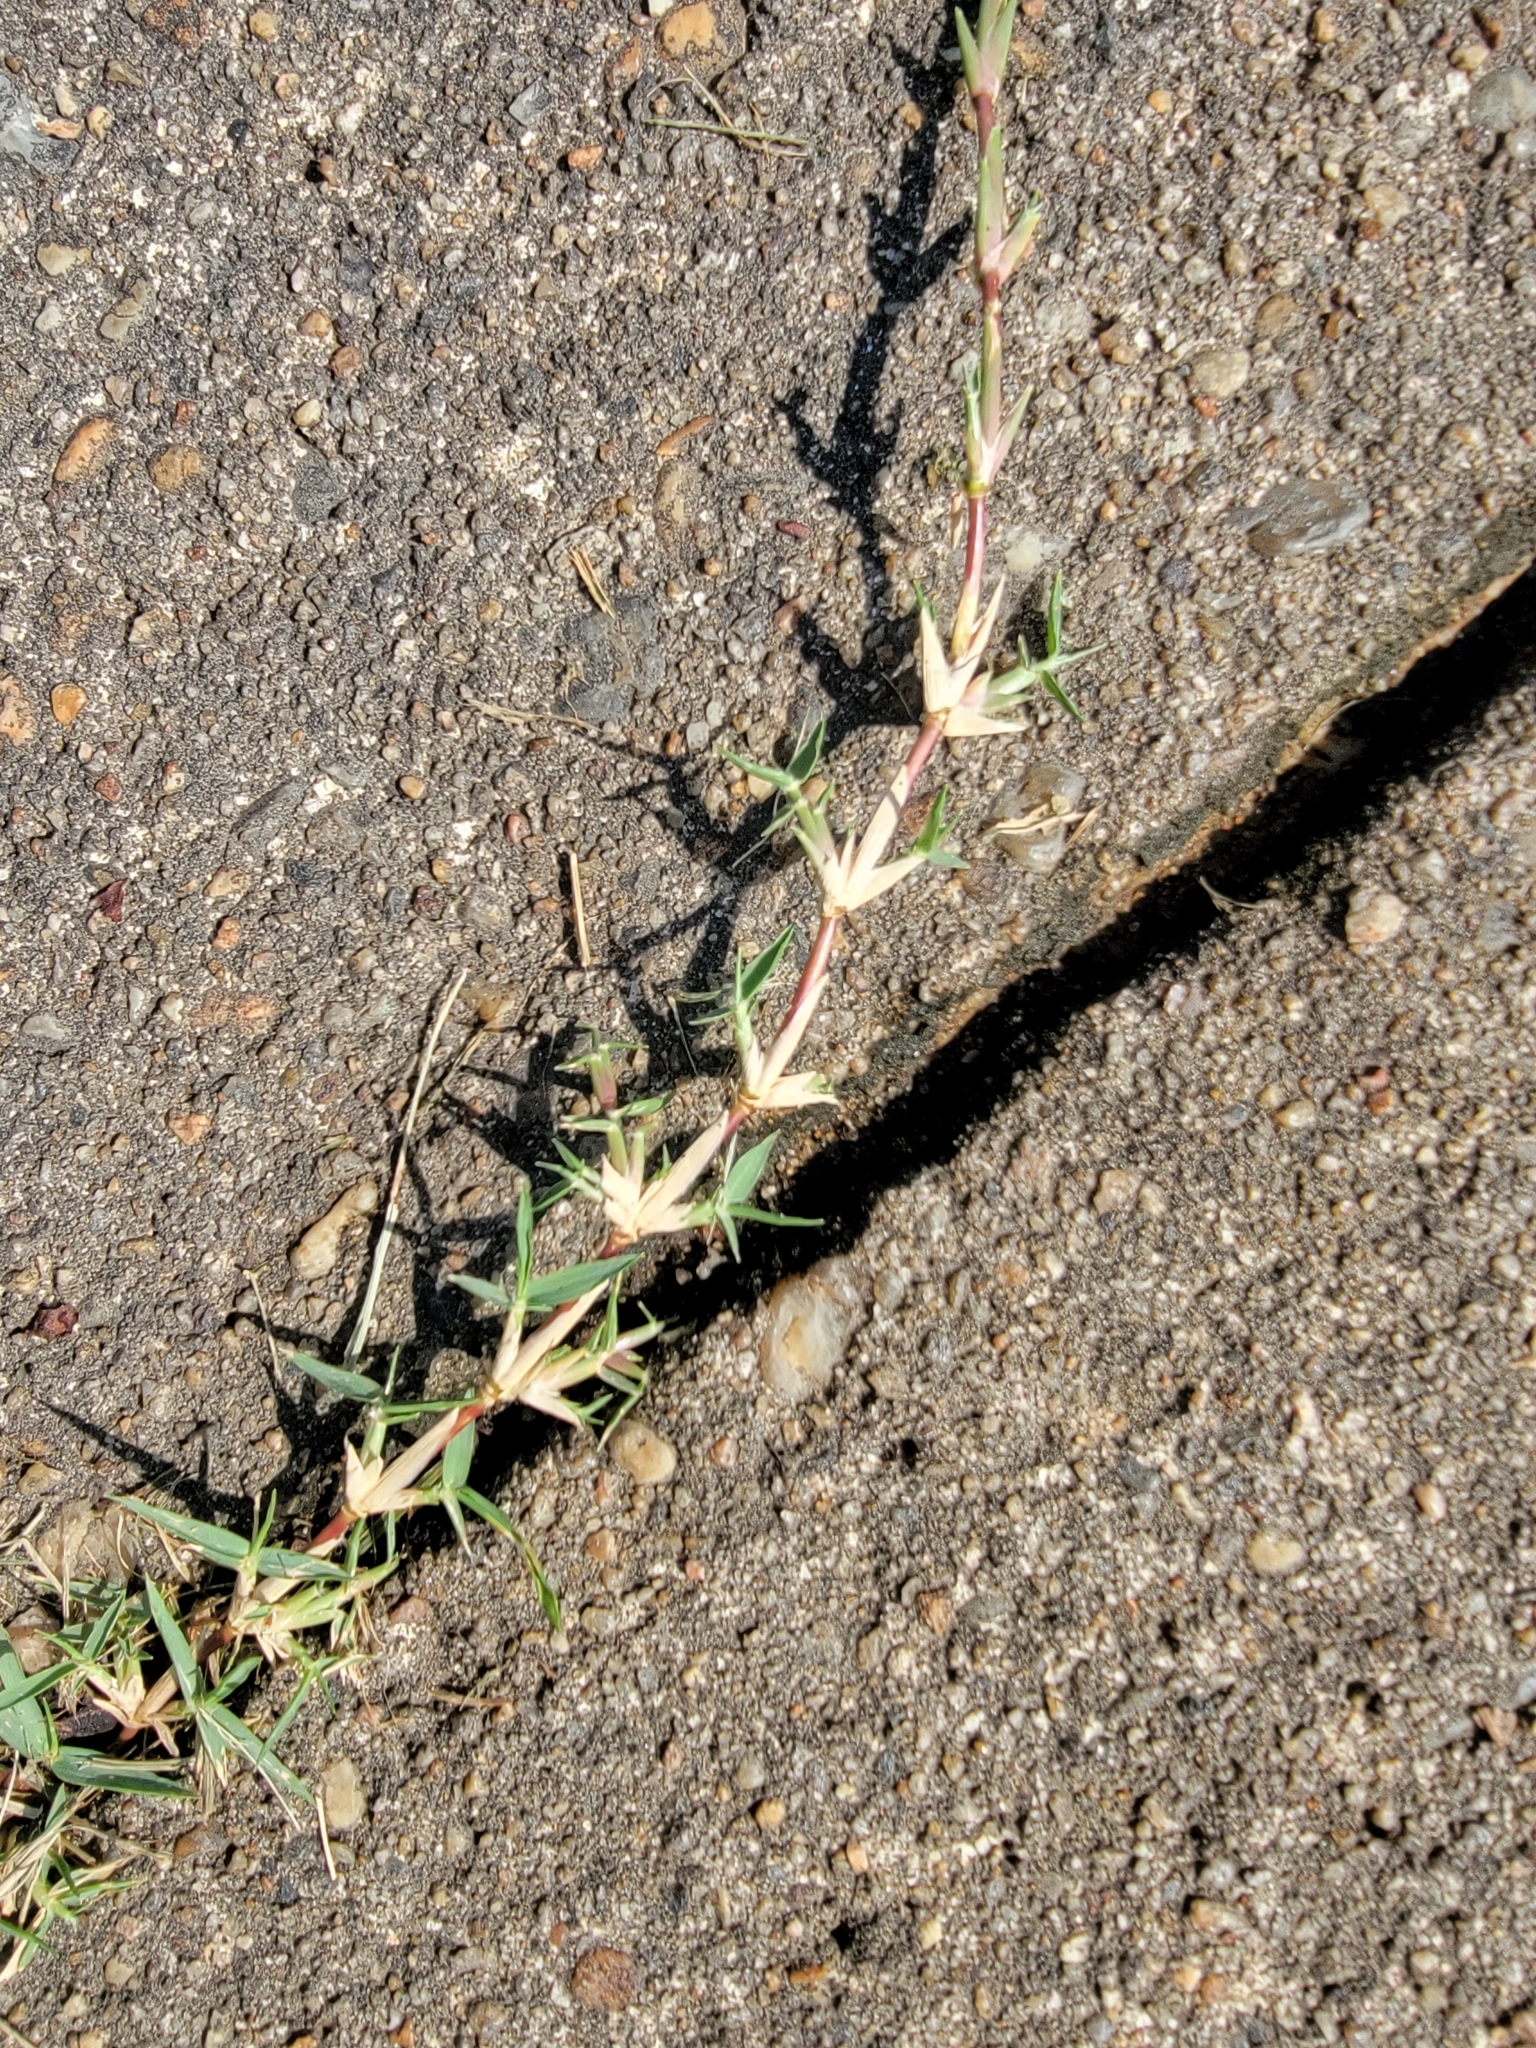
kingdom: Plantae
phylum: Tracheophyta
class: Liliopsida
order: Poales
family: Poaceae
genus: Cynodon
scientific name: Cynodon dactylon
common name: Bermuda grass
